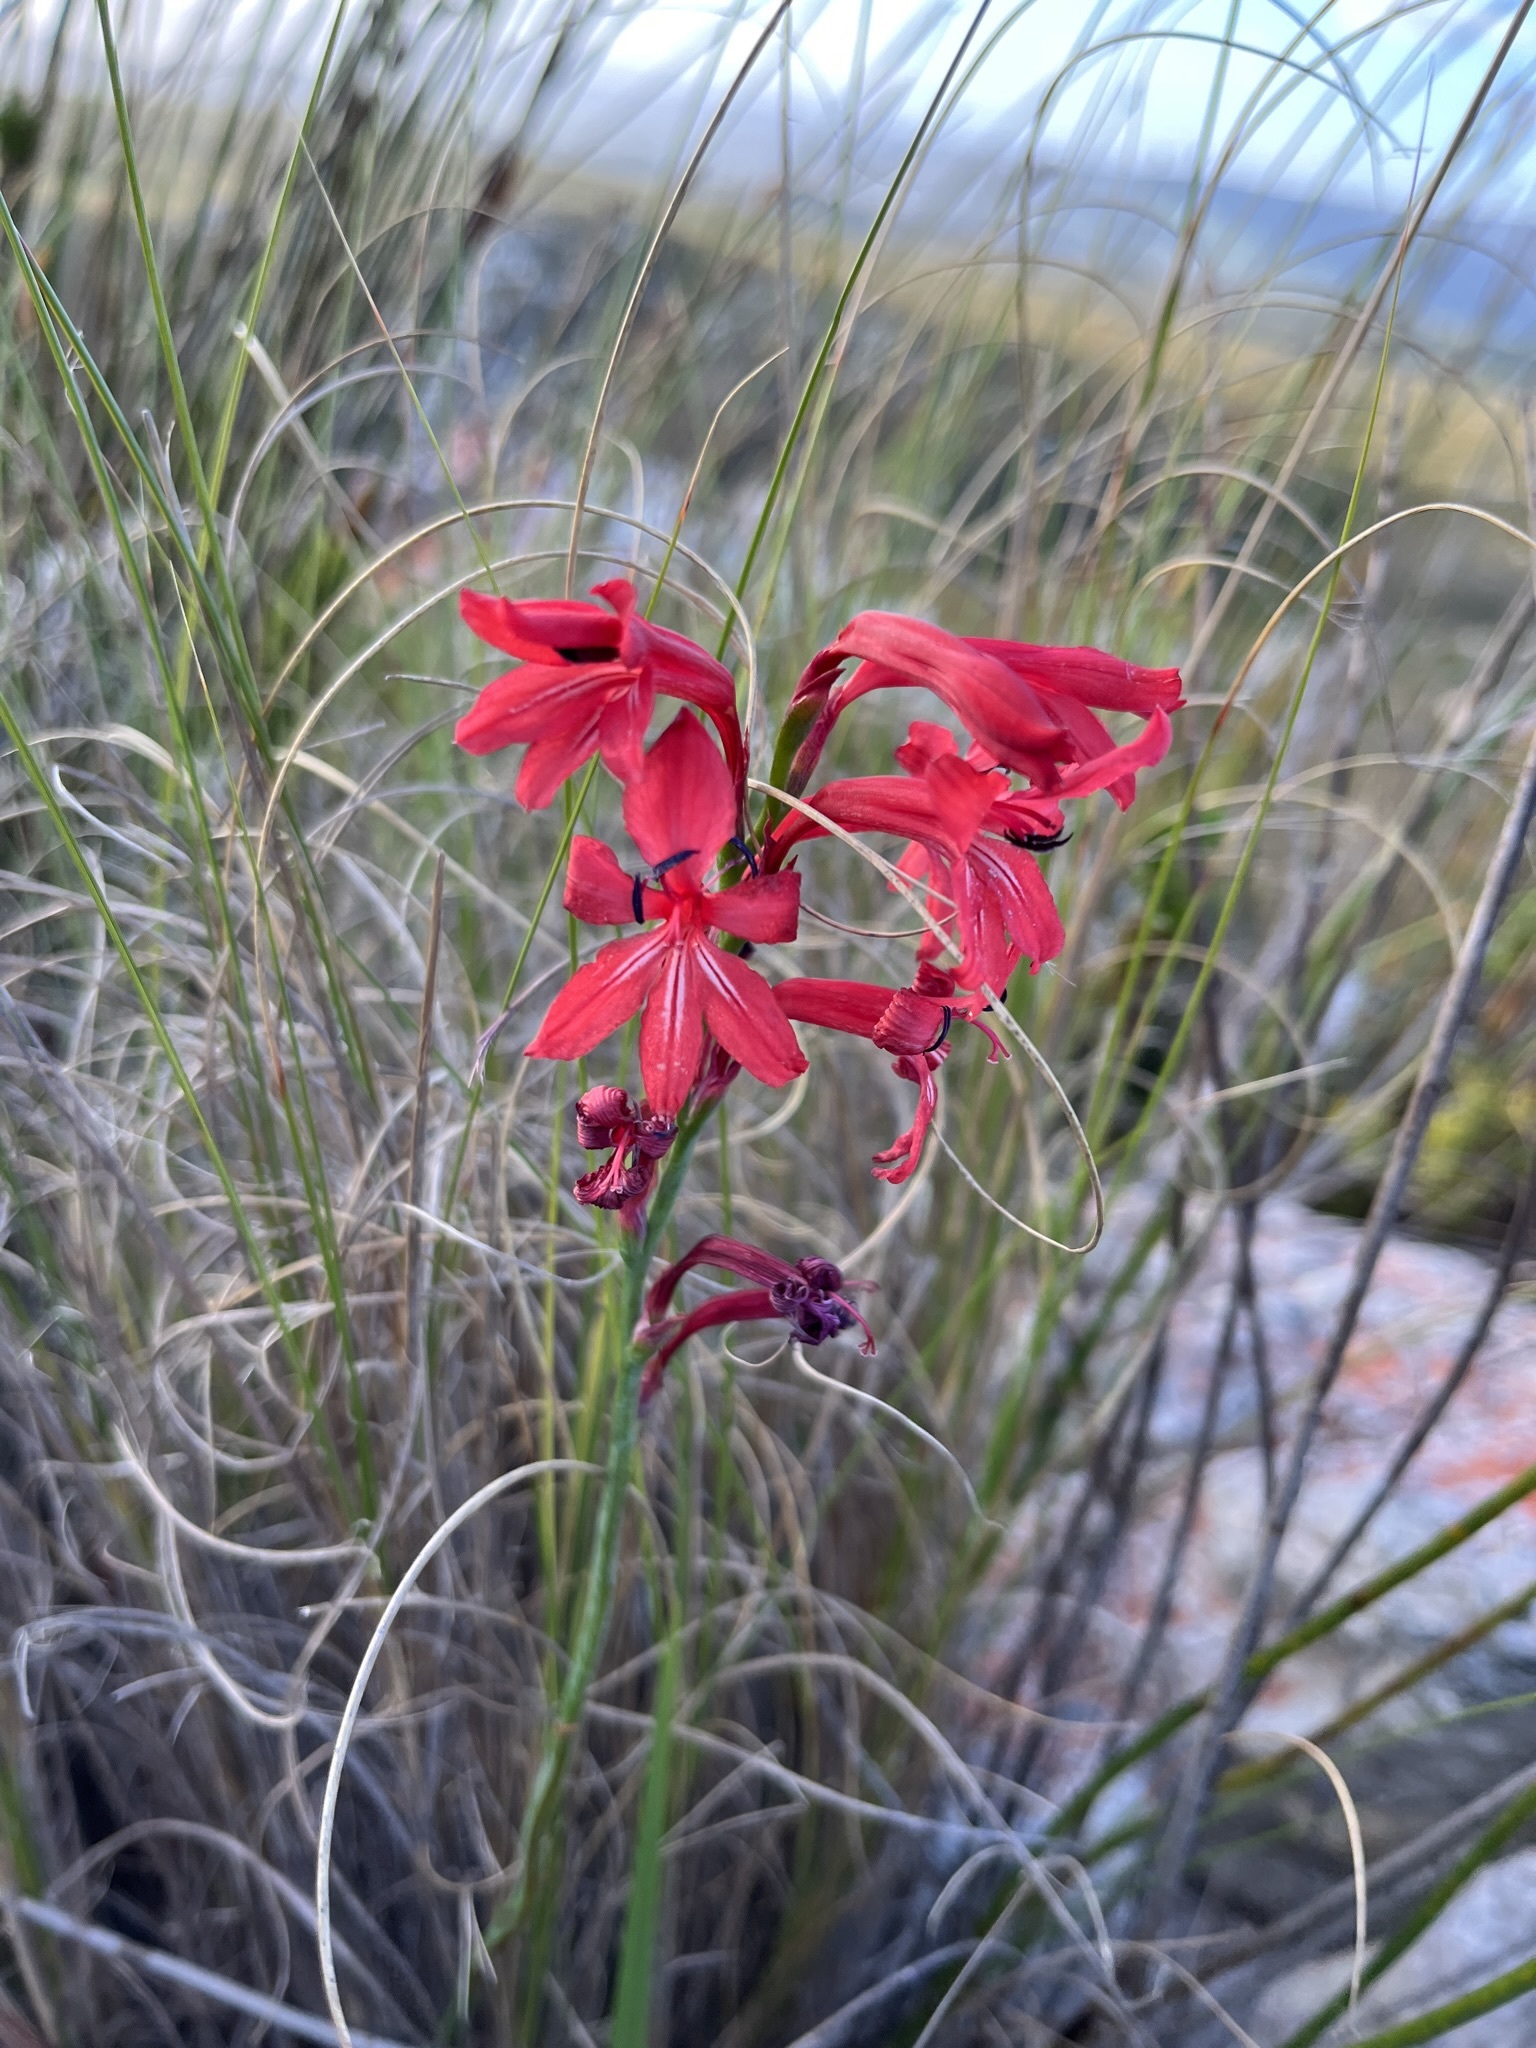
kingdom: Plantae
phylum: Tracheophyta
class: Liliopsida
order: Asparagales
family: Iridaceae
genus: Tritoniopsis
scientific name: Tritoniopsis pulchra
